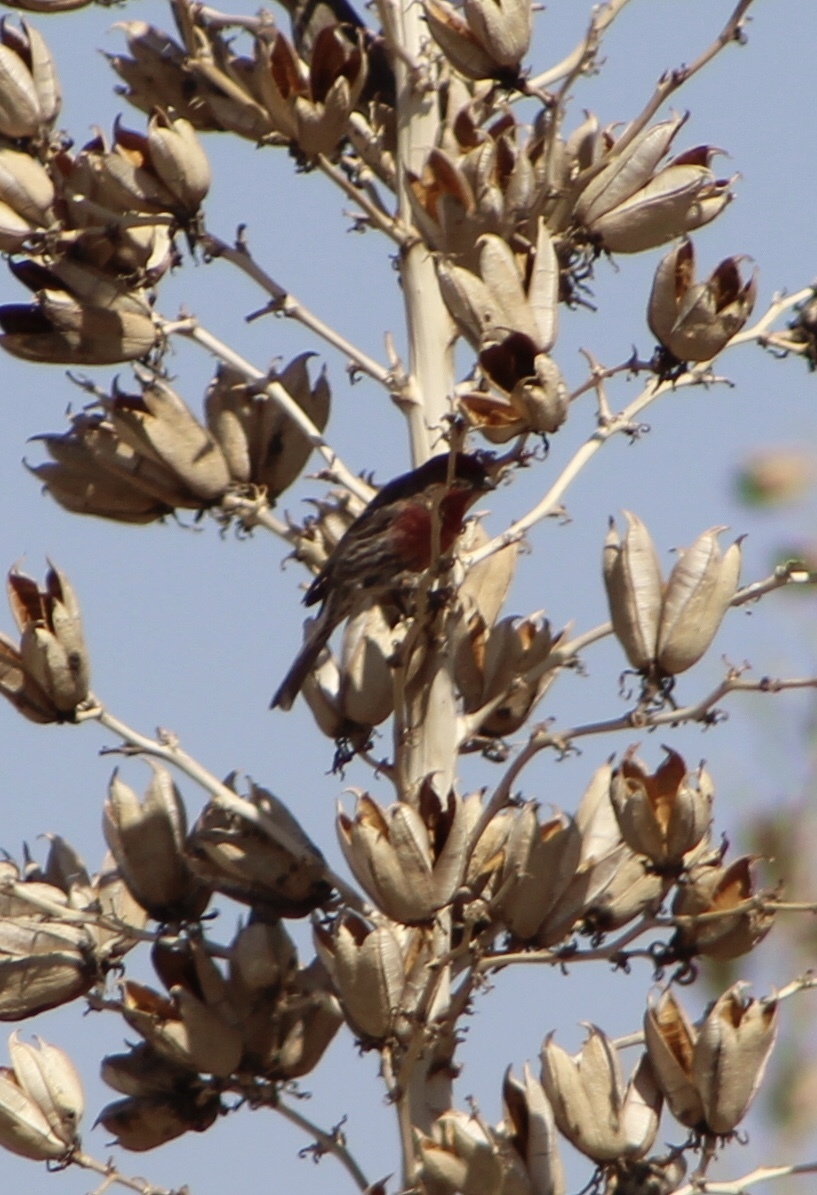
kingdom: Animalia
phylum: Chordata
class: Aves
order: Passeriformes
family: Fringillidae
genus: Haemorhous
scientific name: Haemorhous mexicanus
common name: House finch
